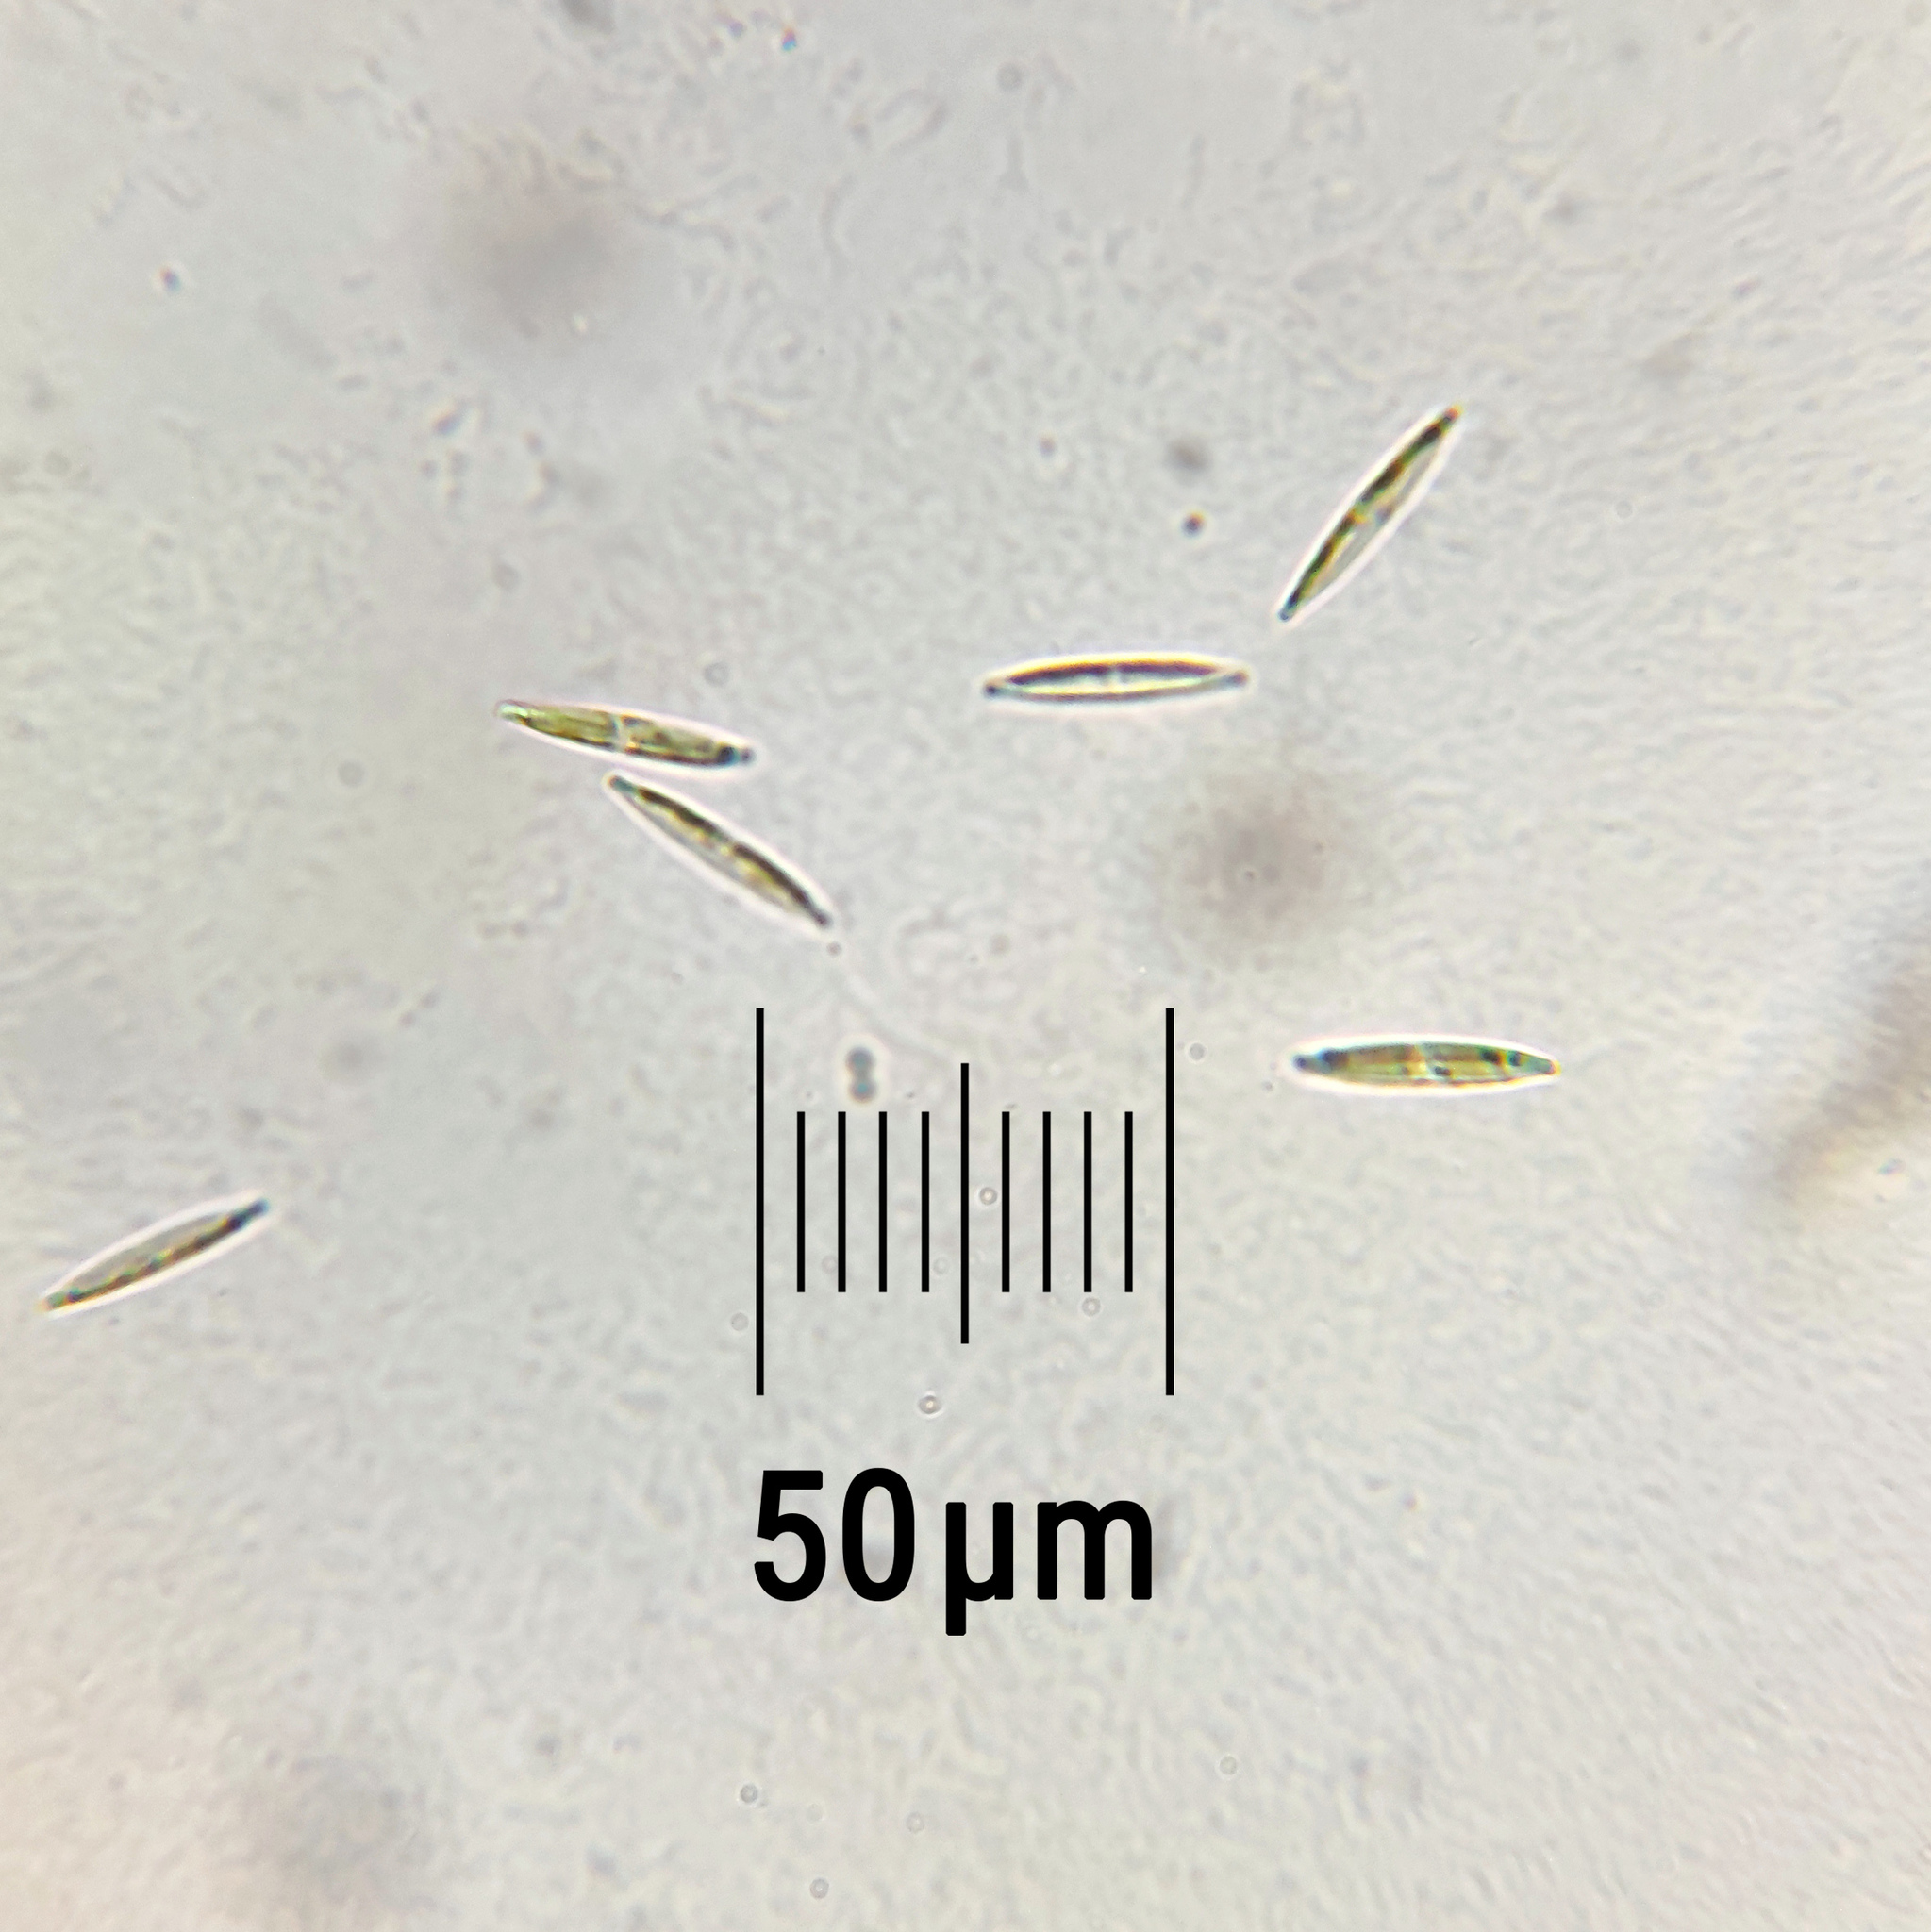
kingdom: Chromista
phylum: Ochrophyta
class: Bacillariophyceae
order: Bacillariales
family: Bacillariaceae
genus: Nitzschia
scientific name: Nitzschia
